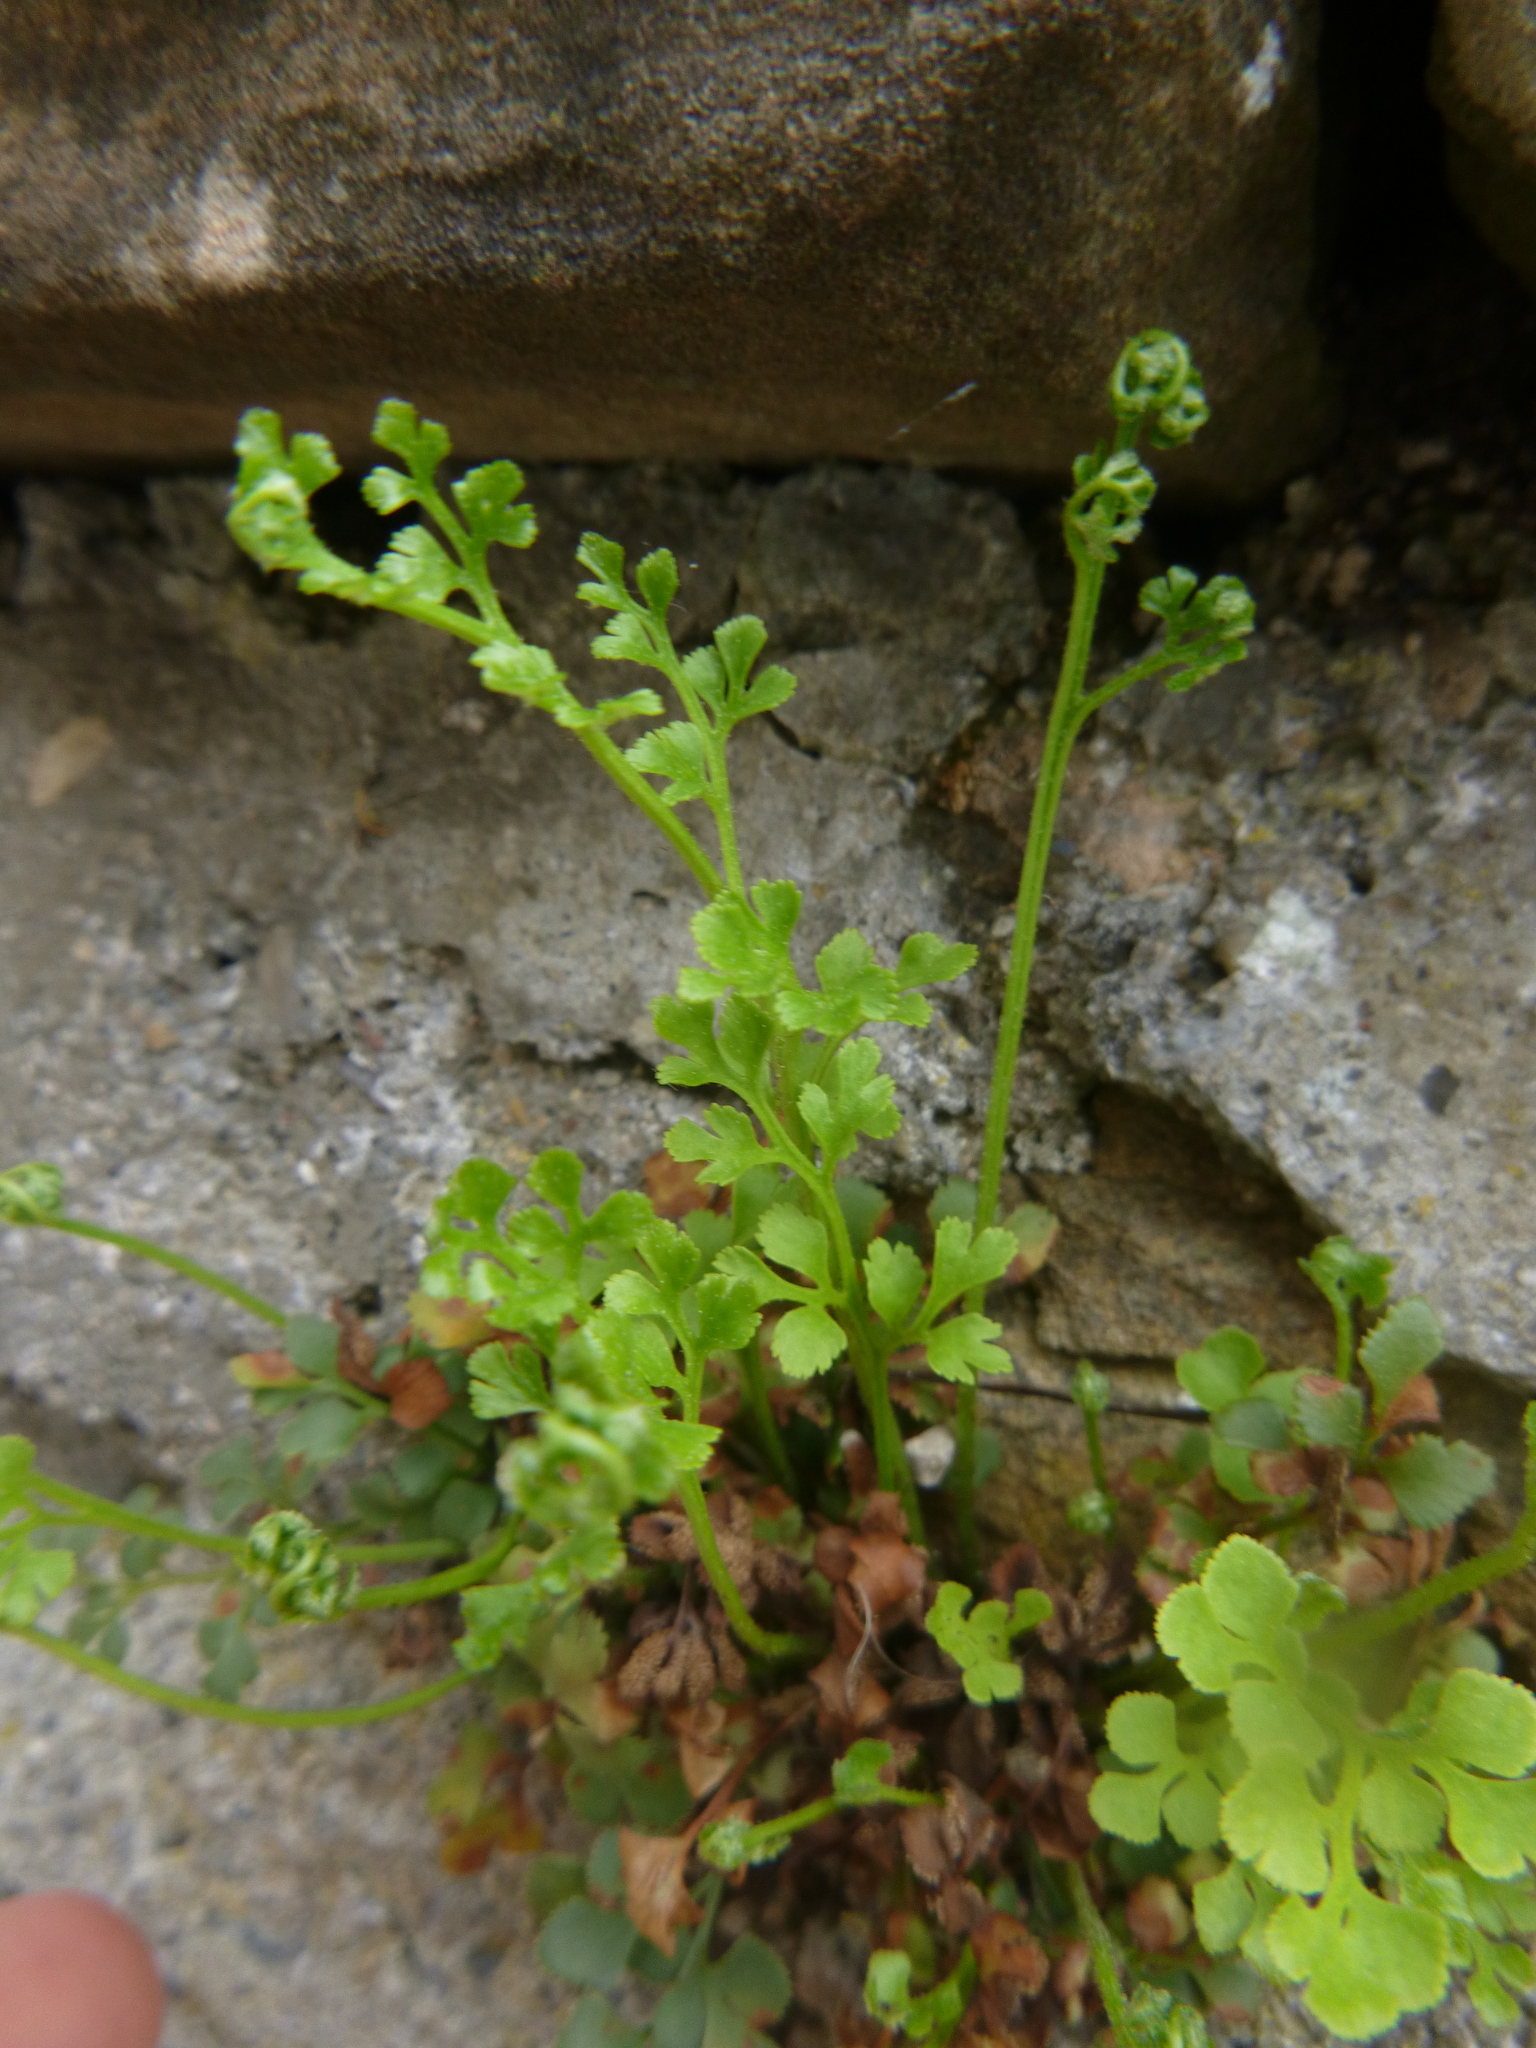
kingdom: Plantae
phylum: Tracheophyta
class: Polypodiopsida
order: Polypodiales
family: Aspleniaceae
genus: Asplenium
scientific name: Asplenium ruta-muraria
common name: Wall-rue
